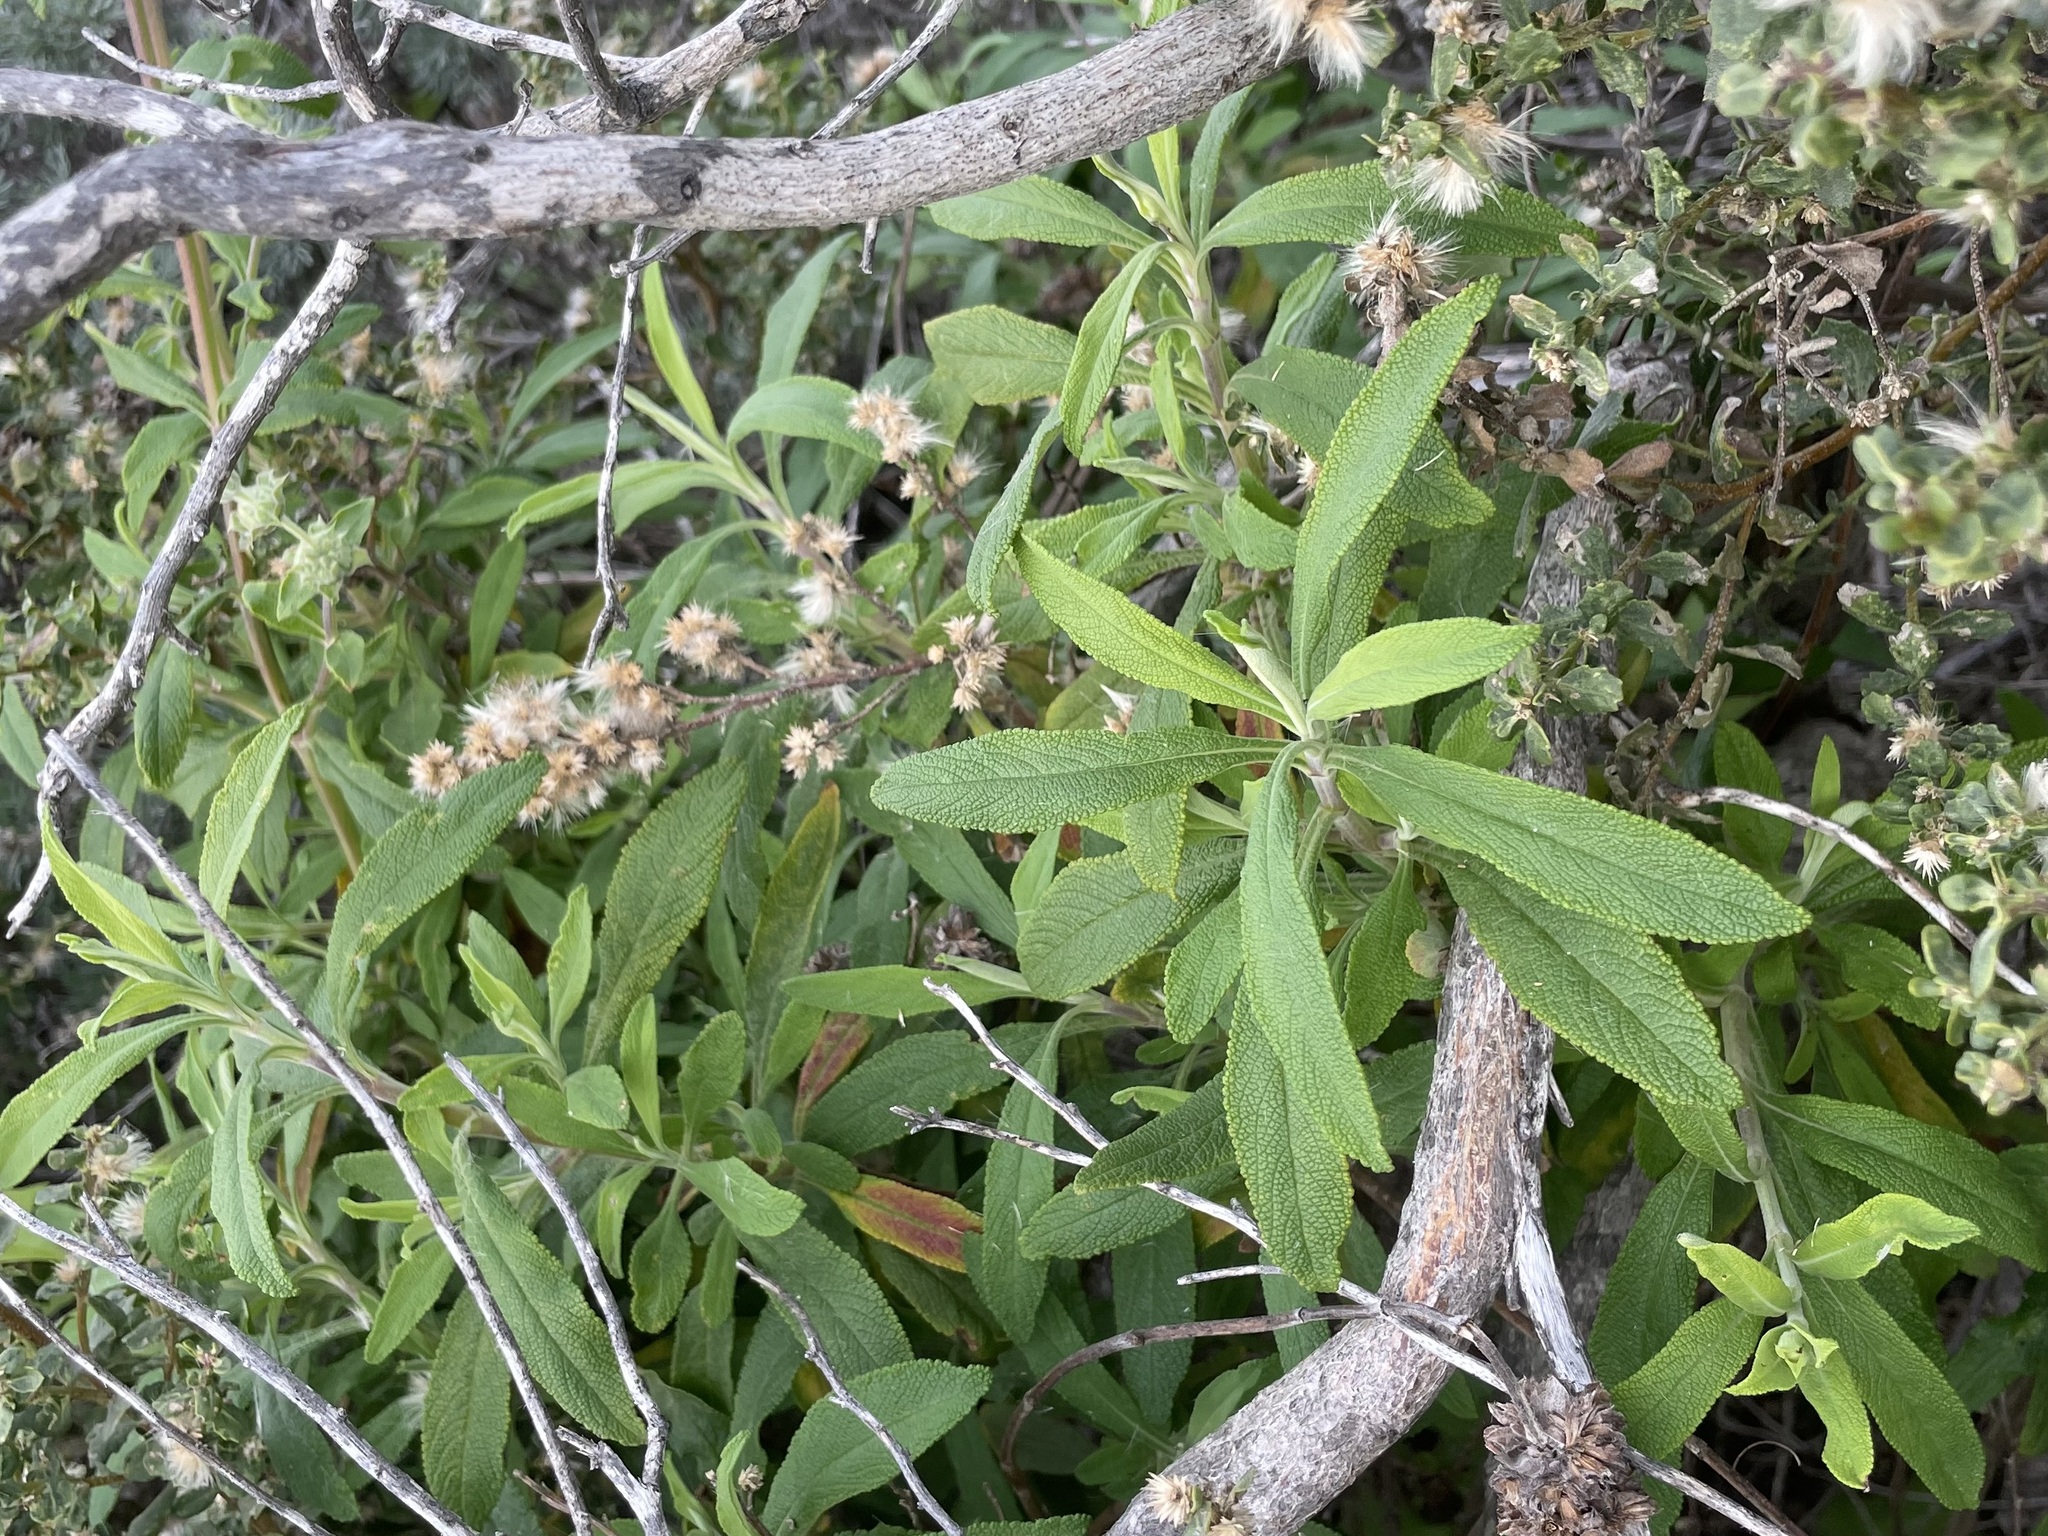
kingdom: Plantae
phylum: Tracheophyta
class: Magnoliopsida
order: Lamiales
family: Lamiaceae
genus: Salvia
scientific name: Salvia mellifera
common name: Black sage
